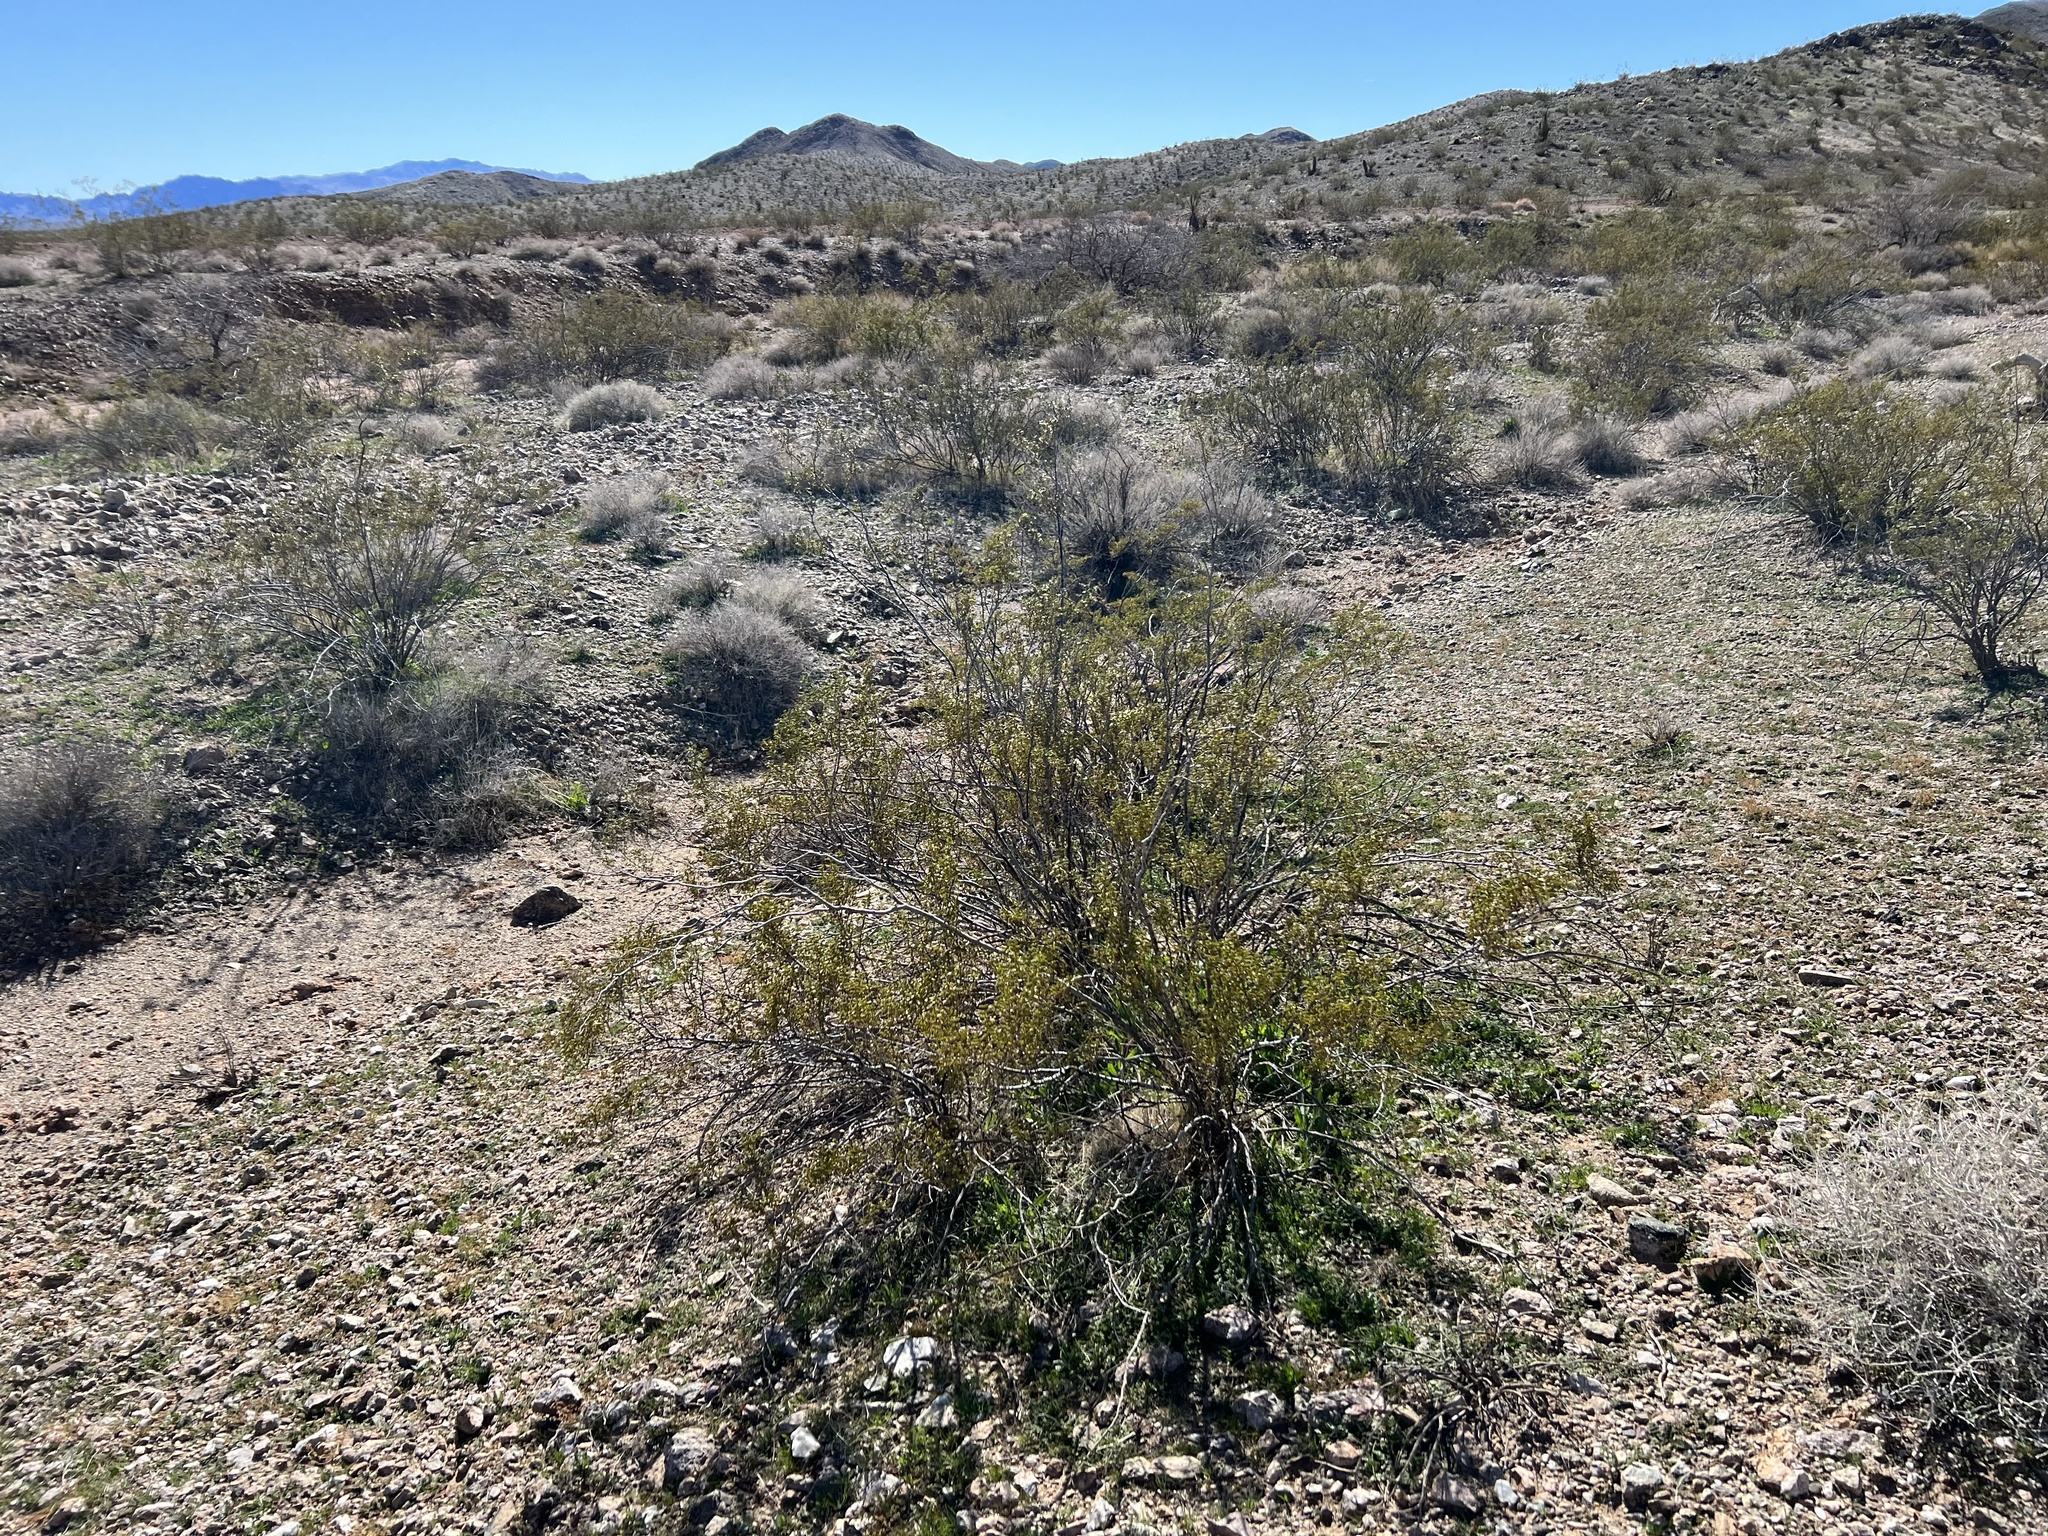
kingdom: Plantae
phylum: Tracheophyta
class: Magnoliopsida
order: Zygophyllales
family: Zygophyllaceae
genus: Larrea
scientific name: Larrea tridentata
